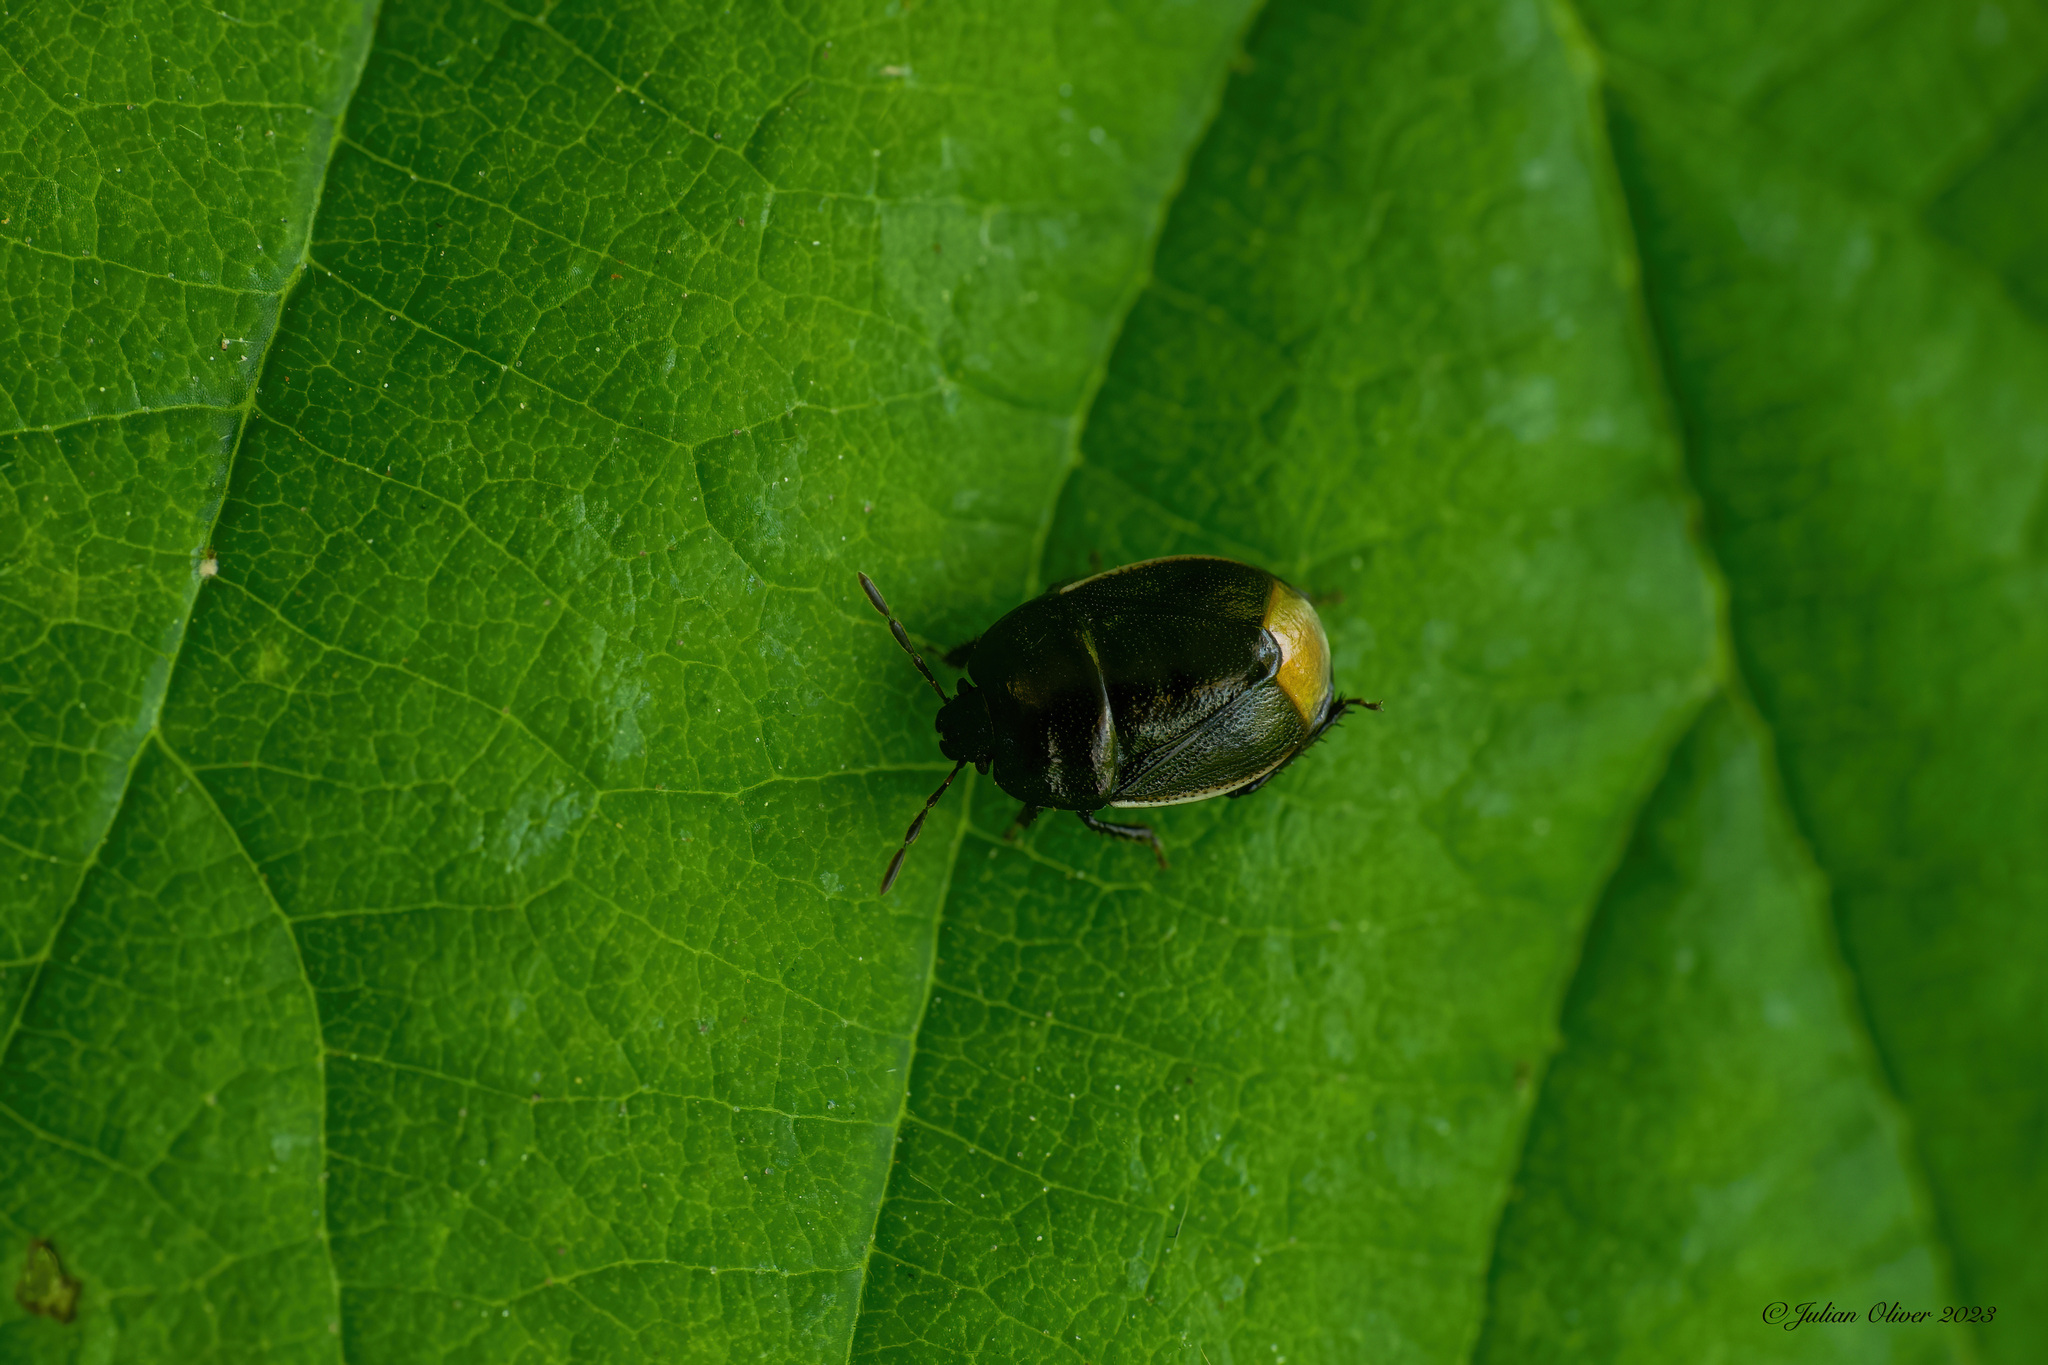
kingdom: Animalia
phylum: Arthropoda
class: Insecta
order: Hemiptera
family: Cydnidae
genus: Legnotus
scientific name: Legnotus limbosus
